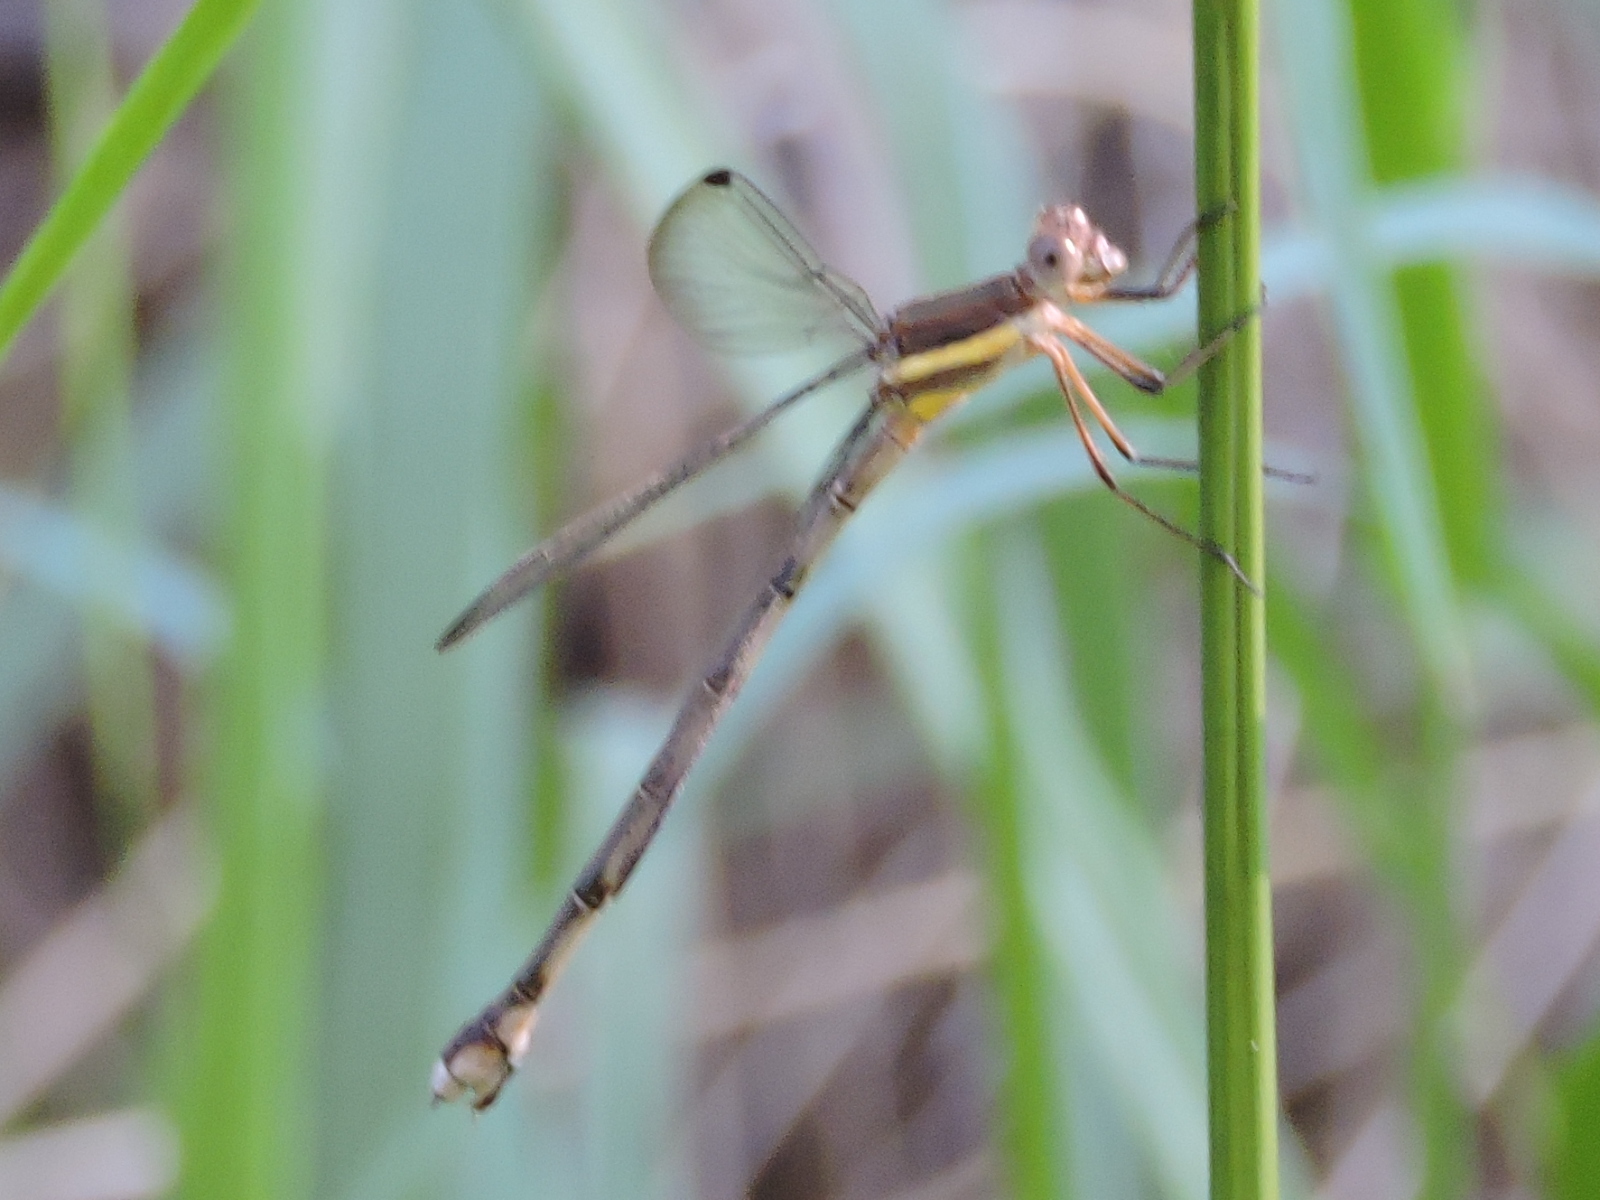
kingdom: Animalia
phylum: Arthropoda
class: Insecta
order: Odonata
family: Lestidae
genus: Archilestes
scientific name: Archilestes grandis
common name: Great spreadwing
